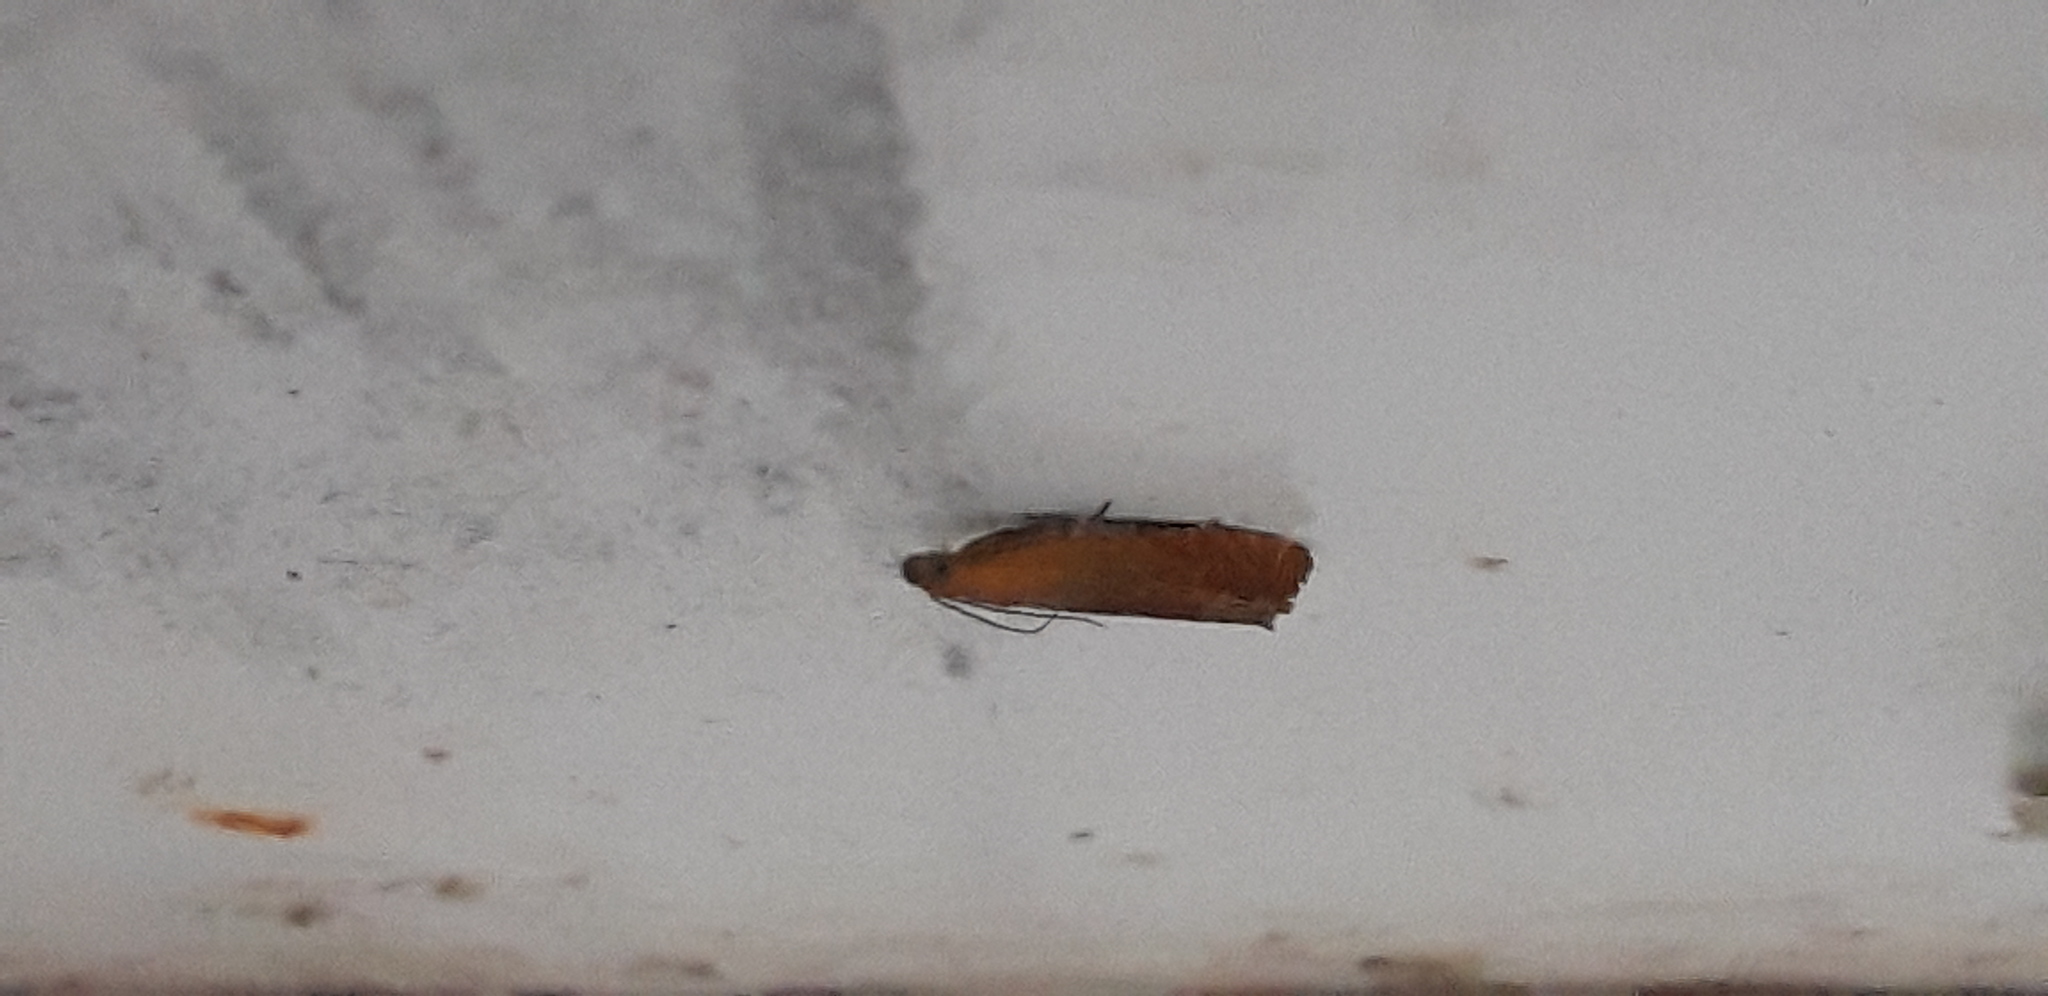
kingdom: Animalia
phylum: Arthropoda
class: Insecta
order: Lepidoptera
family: Tortricidae
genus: Lathronympha
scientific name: Lathronympha strigana
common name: Red piercer
